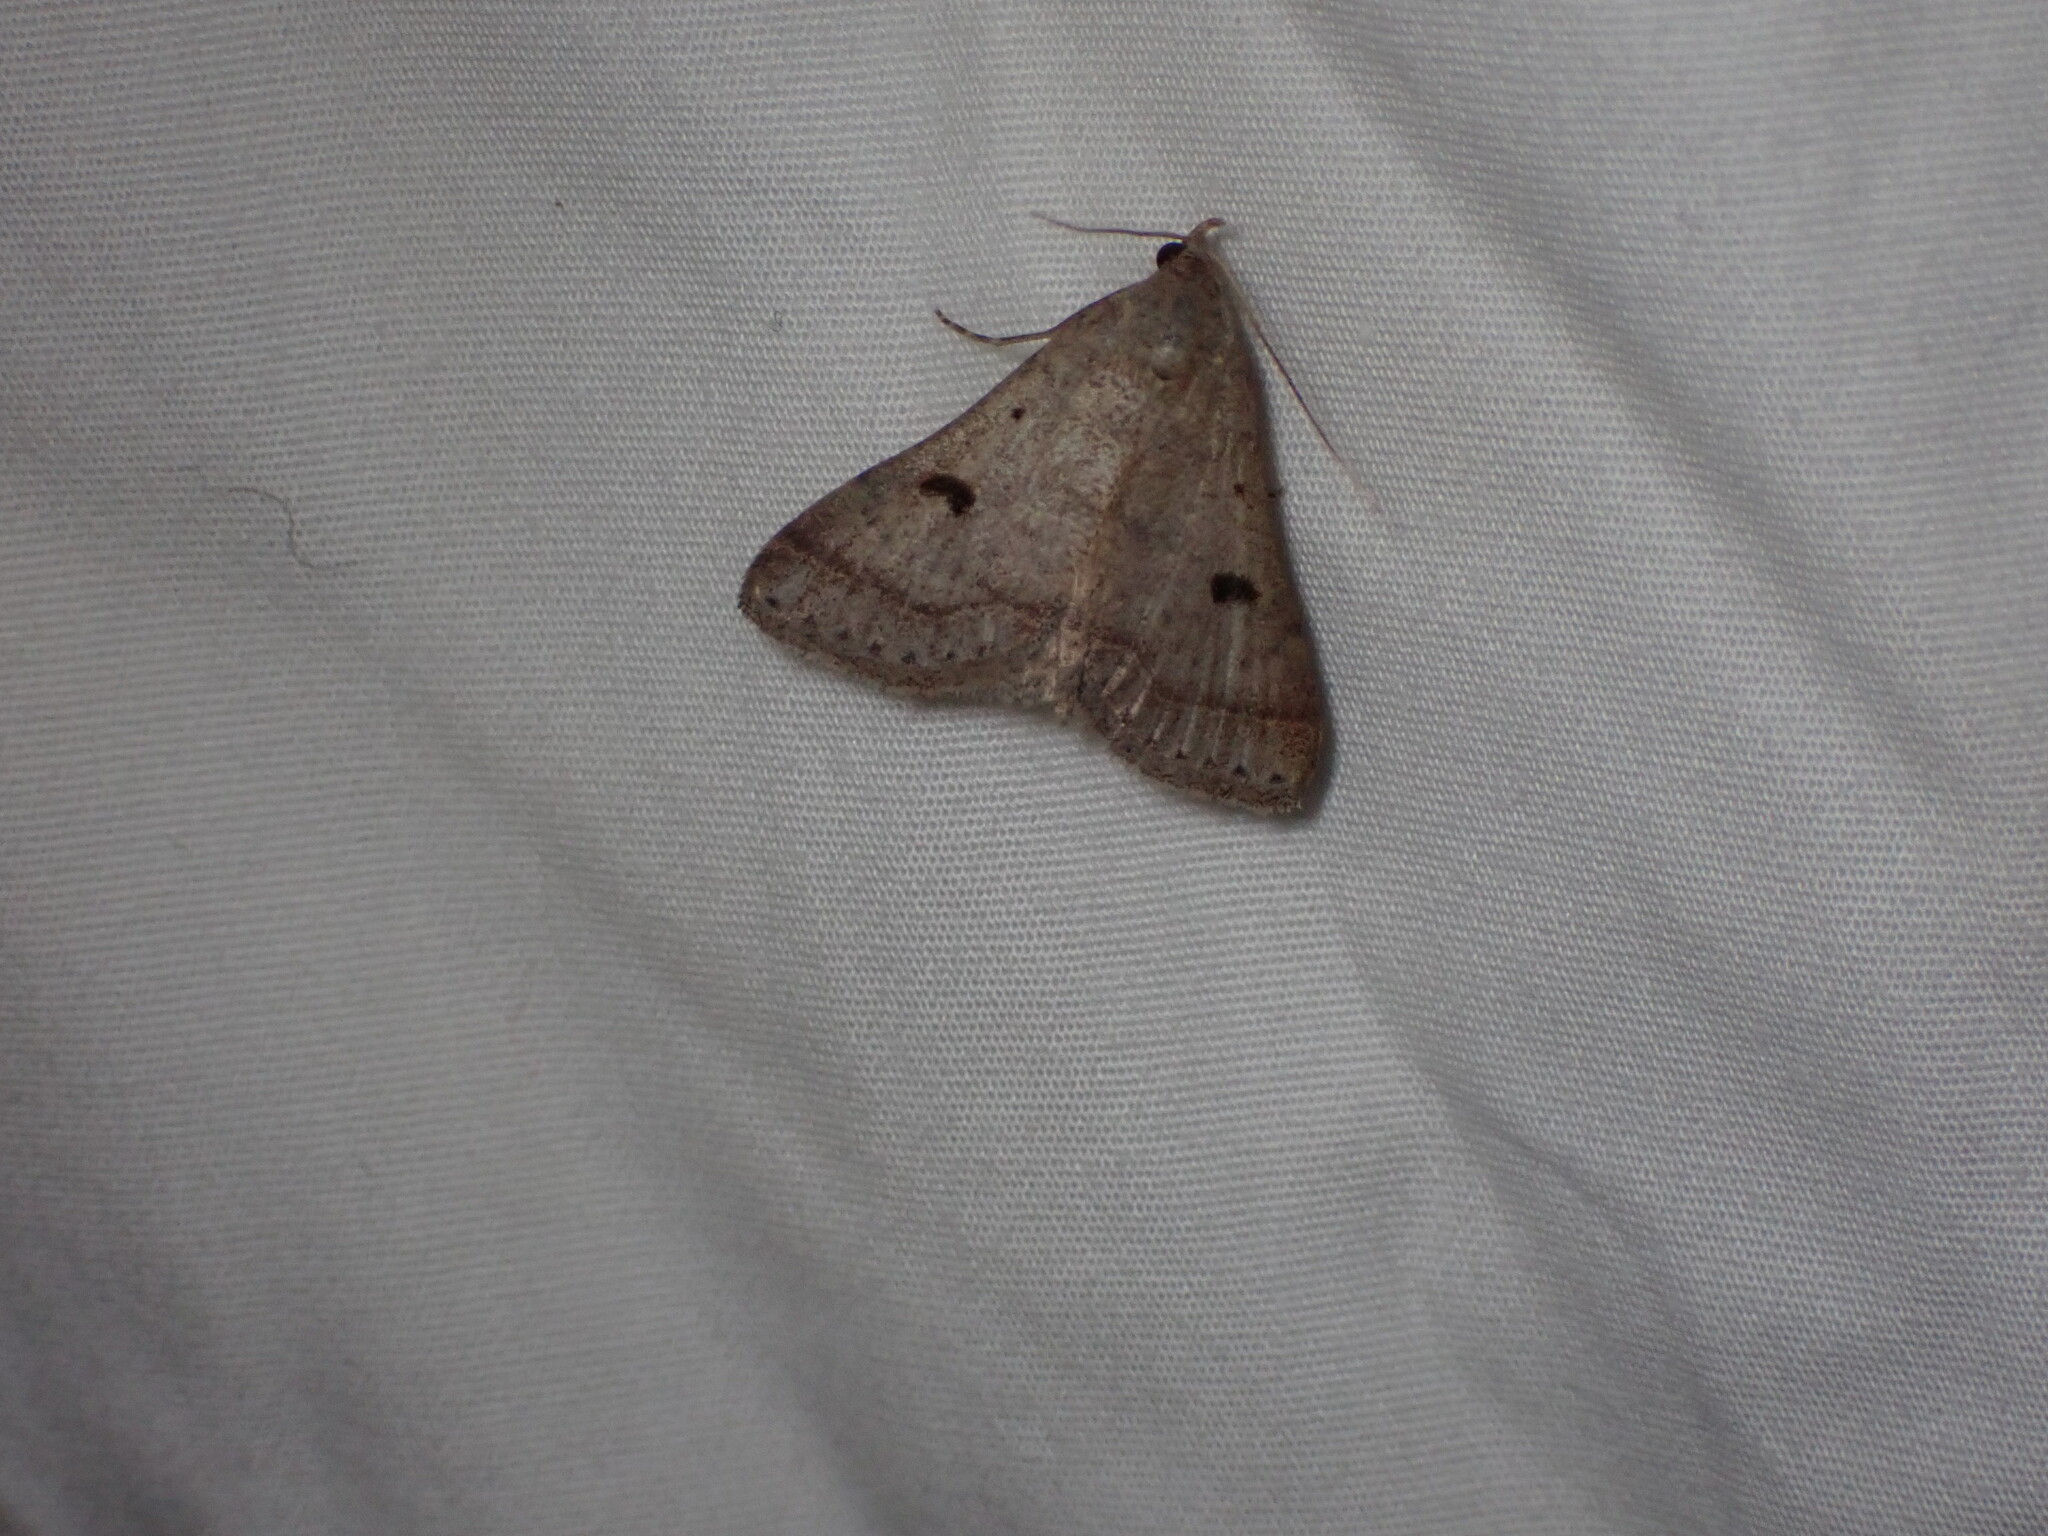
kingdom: Animalia
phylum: Arthropoda
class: Insecta
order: Lepidoptera
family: Erebidae
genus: Bleptina
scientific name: Bleptina caradrinalis
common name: Bent-winged owlet
